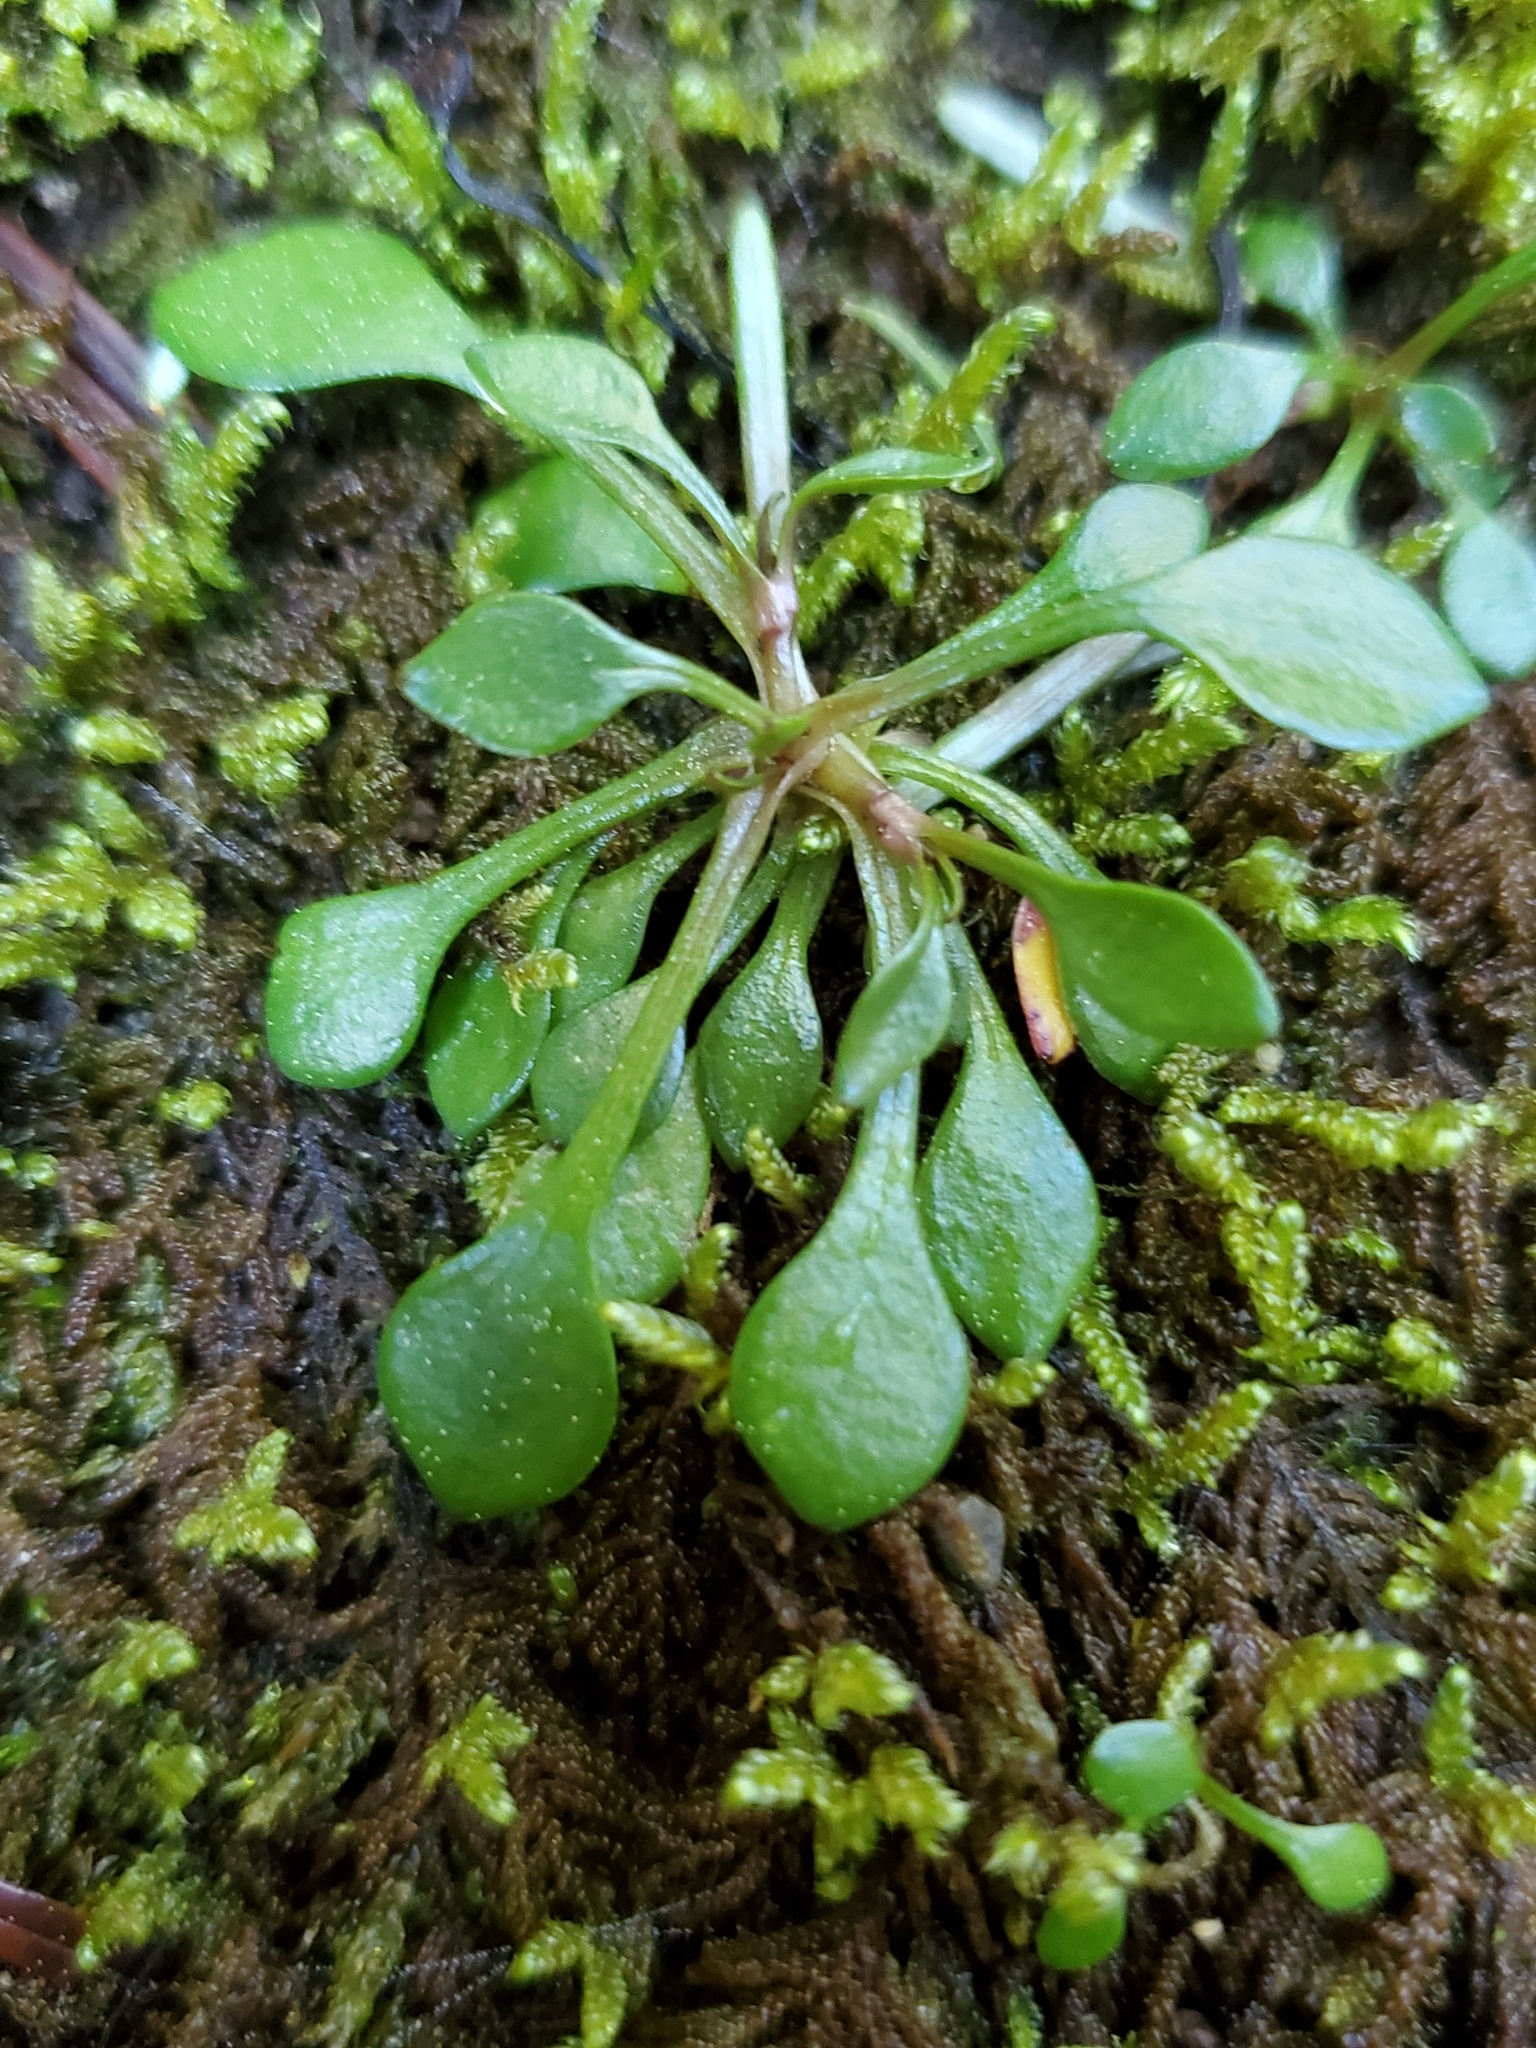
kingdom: Plantae
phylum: Tracheophyta
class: Magnoliopsida
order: Caryophyllales
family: Montiaceae
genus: Montia
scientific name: Montia parvifolia
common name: Small-leaved blinks
